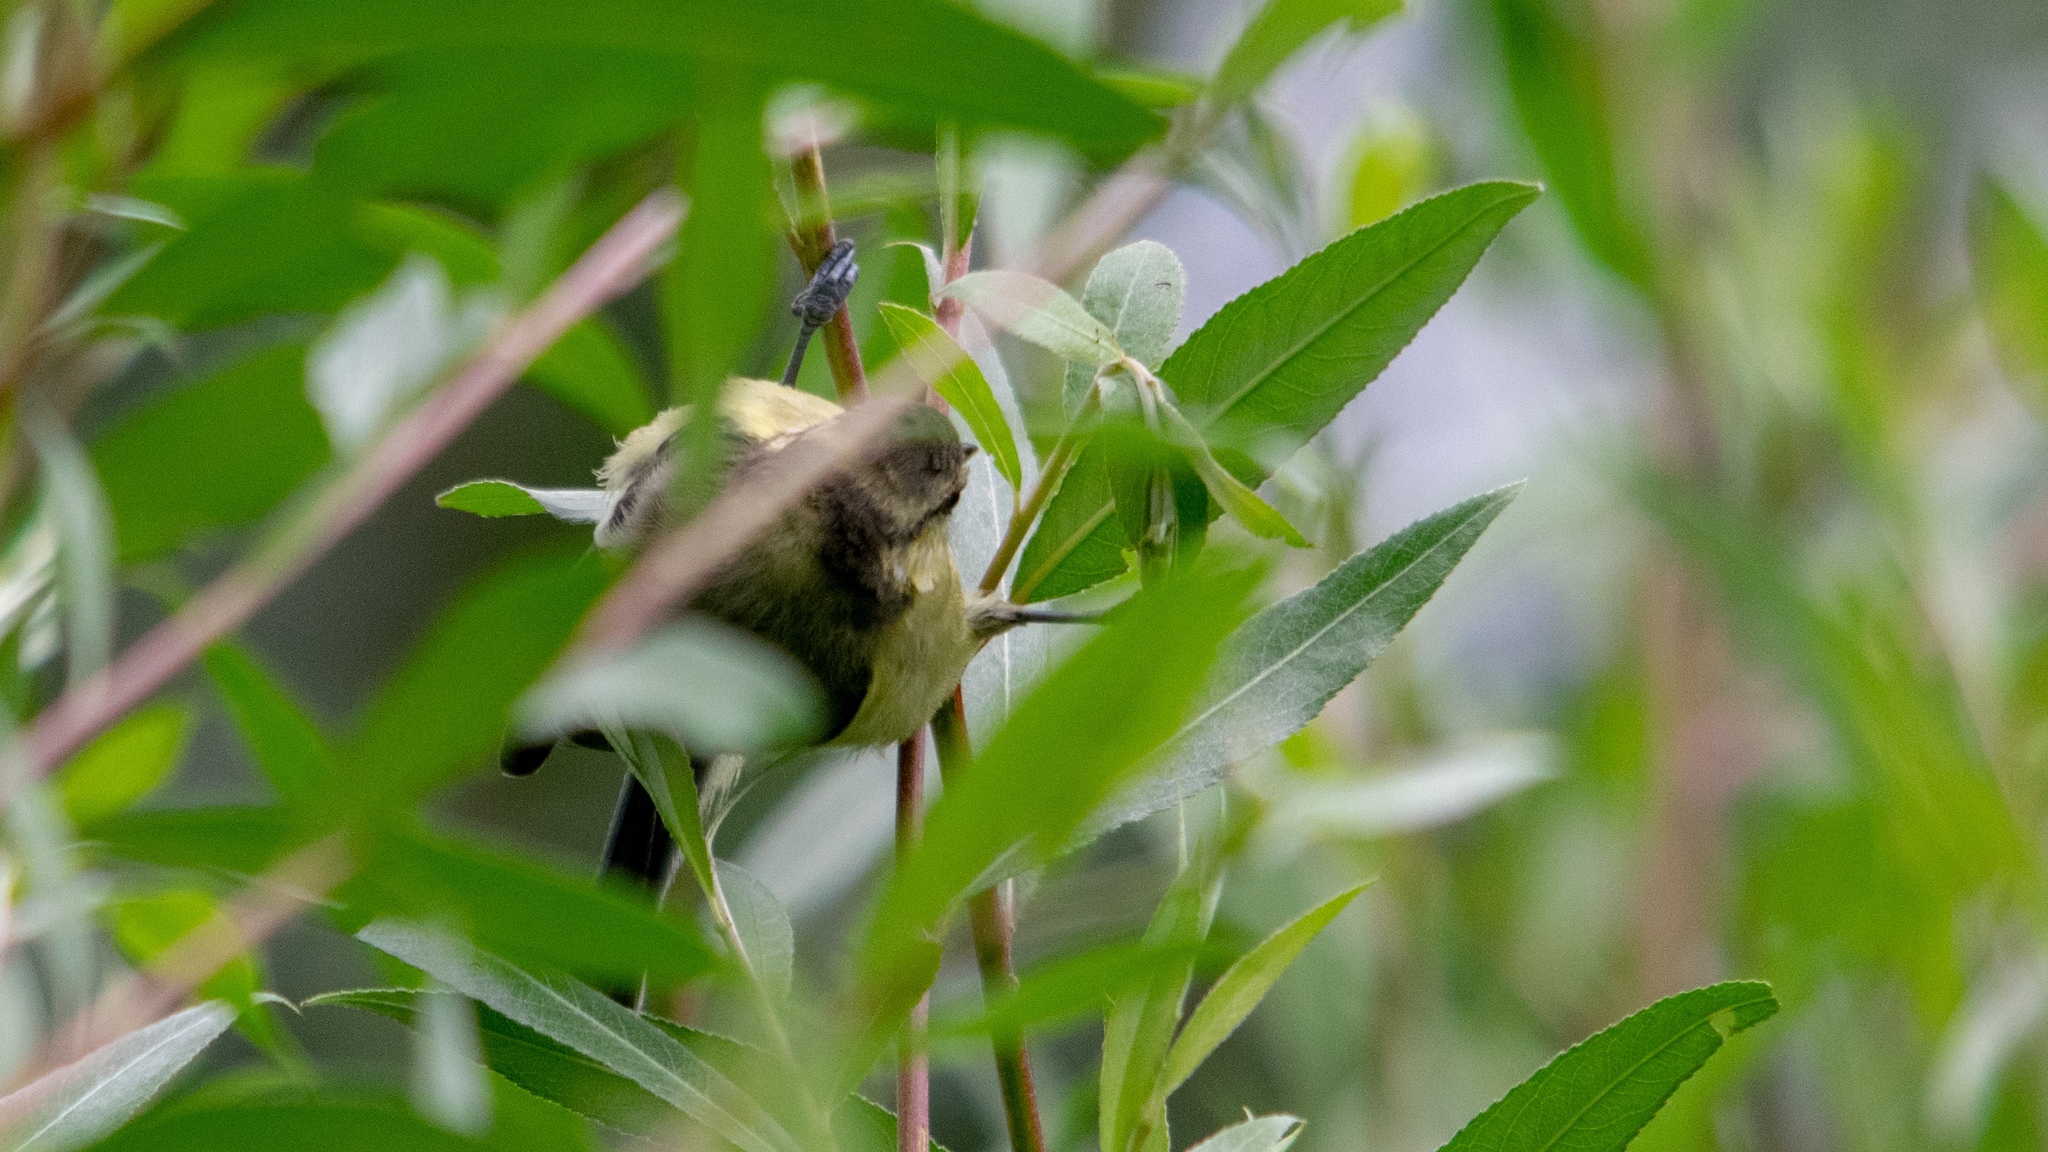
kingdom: Animalia
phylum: Chordata
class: Aves
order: Passeriformes
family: Paridae
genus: Cyanistes
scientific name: Cyanistes caeruleus
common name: Eurasian blue tit
